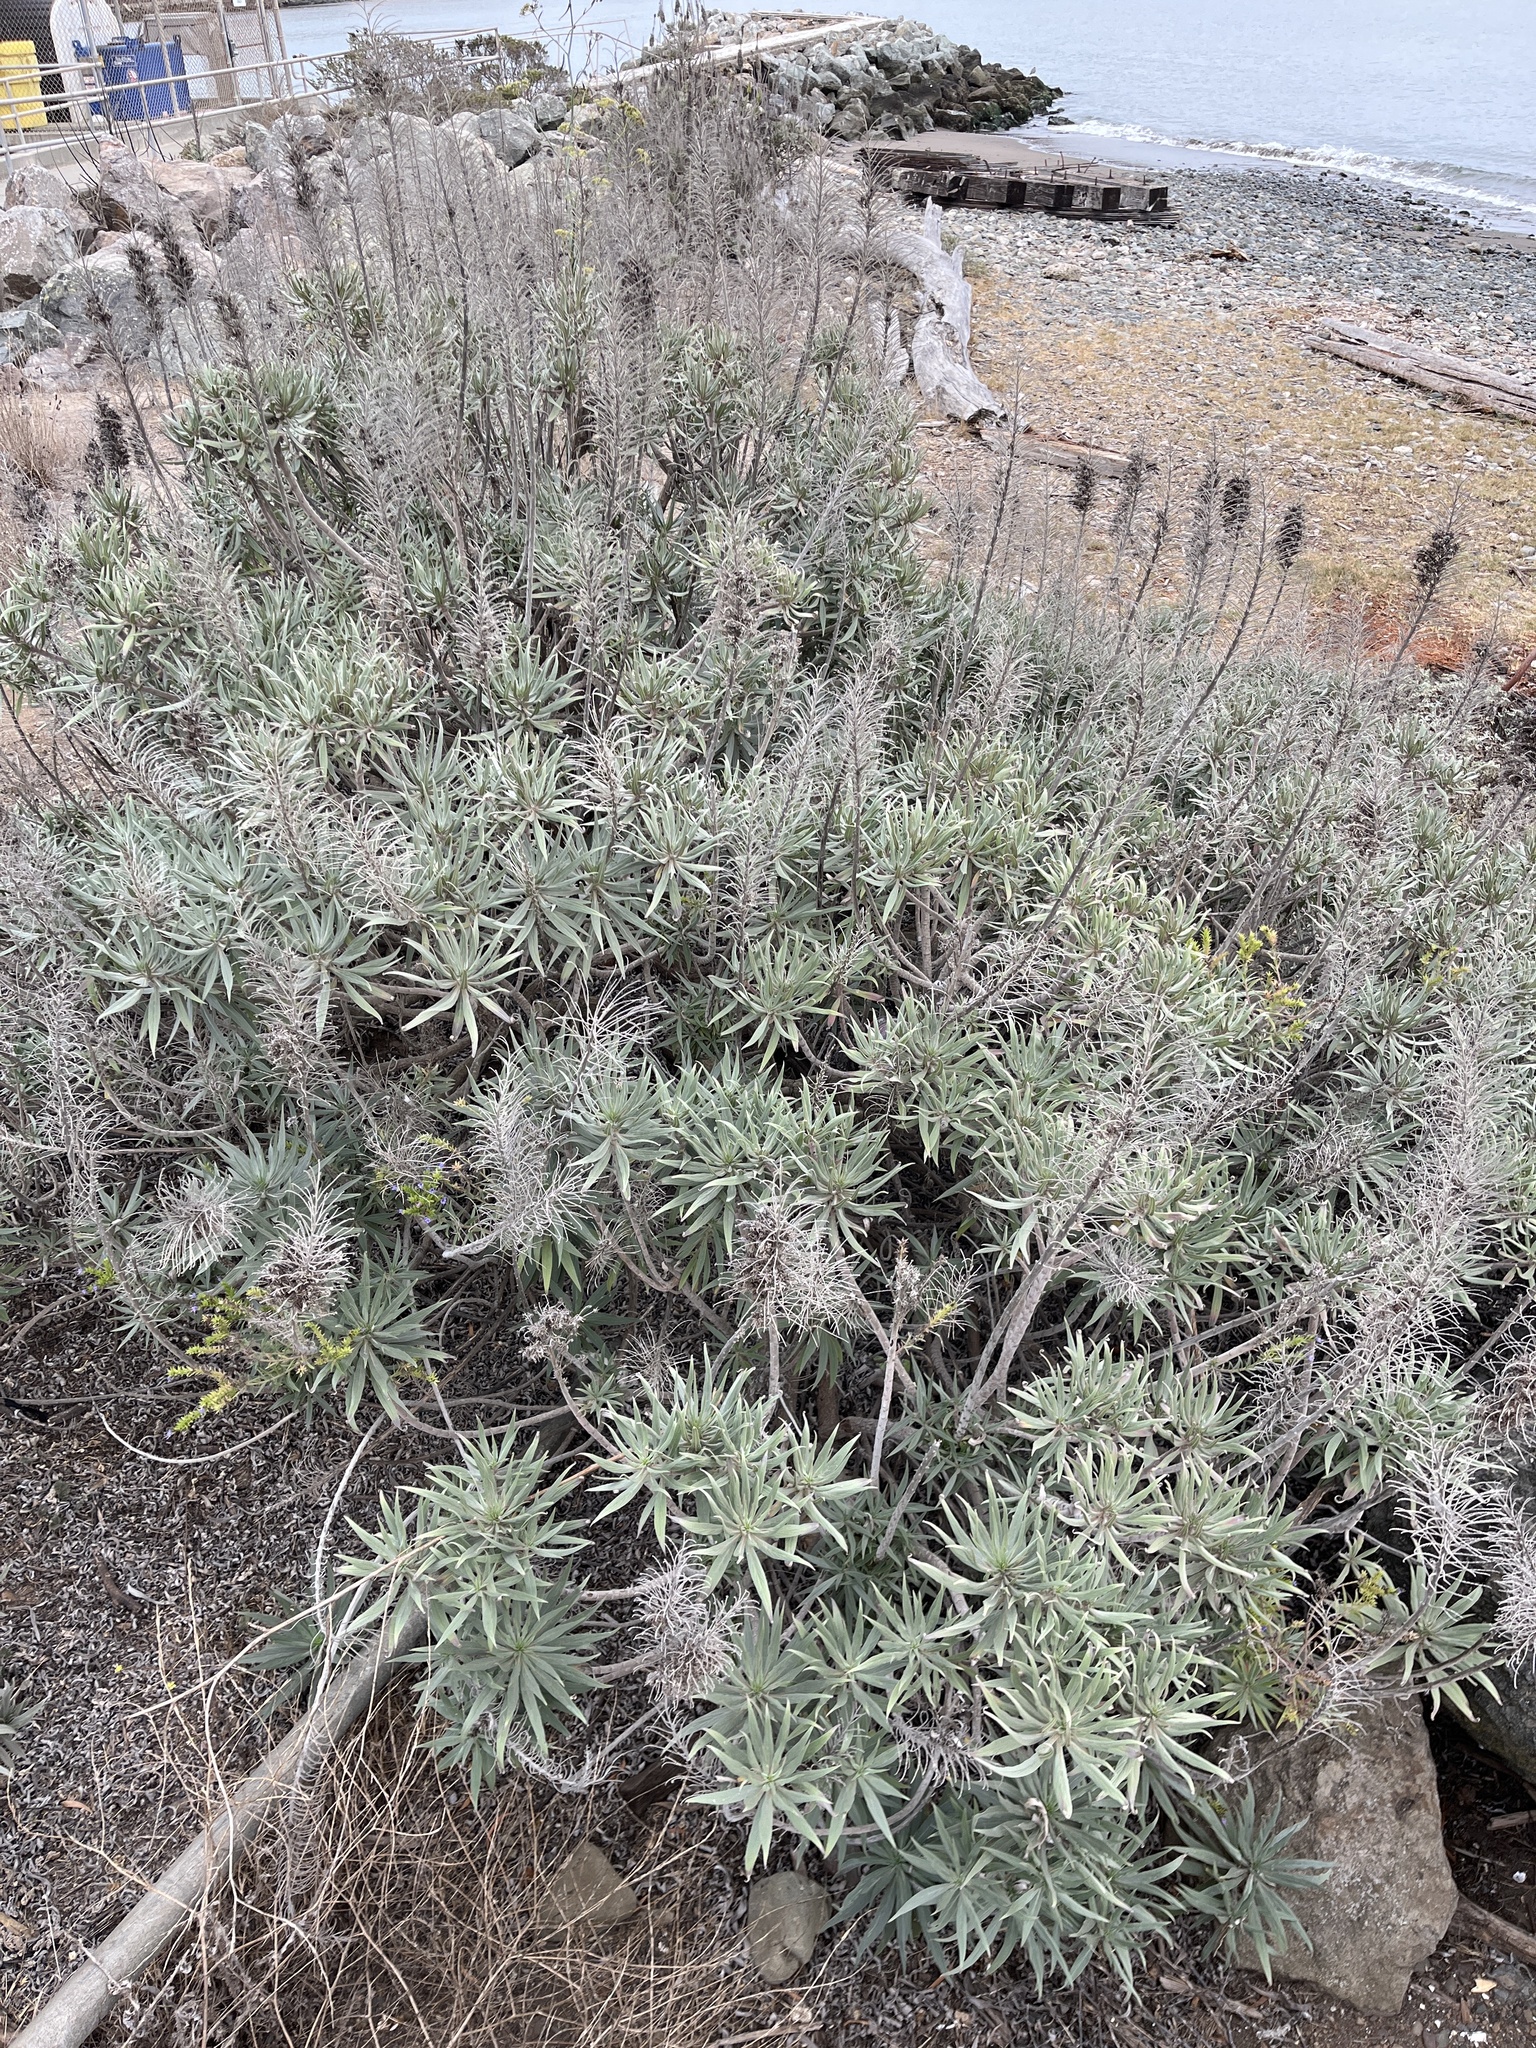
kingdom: Plantae
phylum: Tracheophyta
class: Magnoliopsida
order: Boraginales
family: Boraginaceae
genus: Echium
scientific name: Echium candicans
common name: Pride of madeira
